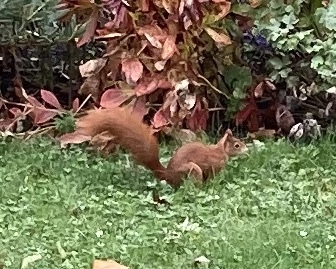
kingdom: Animalia
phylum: Chordata
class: Mammalia
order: Rodentia
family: Sciuridae
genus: Sciurus
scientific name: Sciurus vulgaris
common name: Eurasian red squirrel
